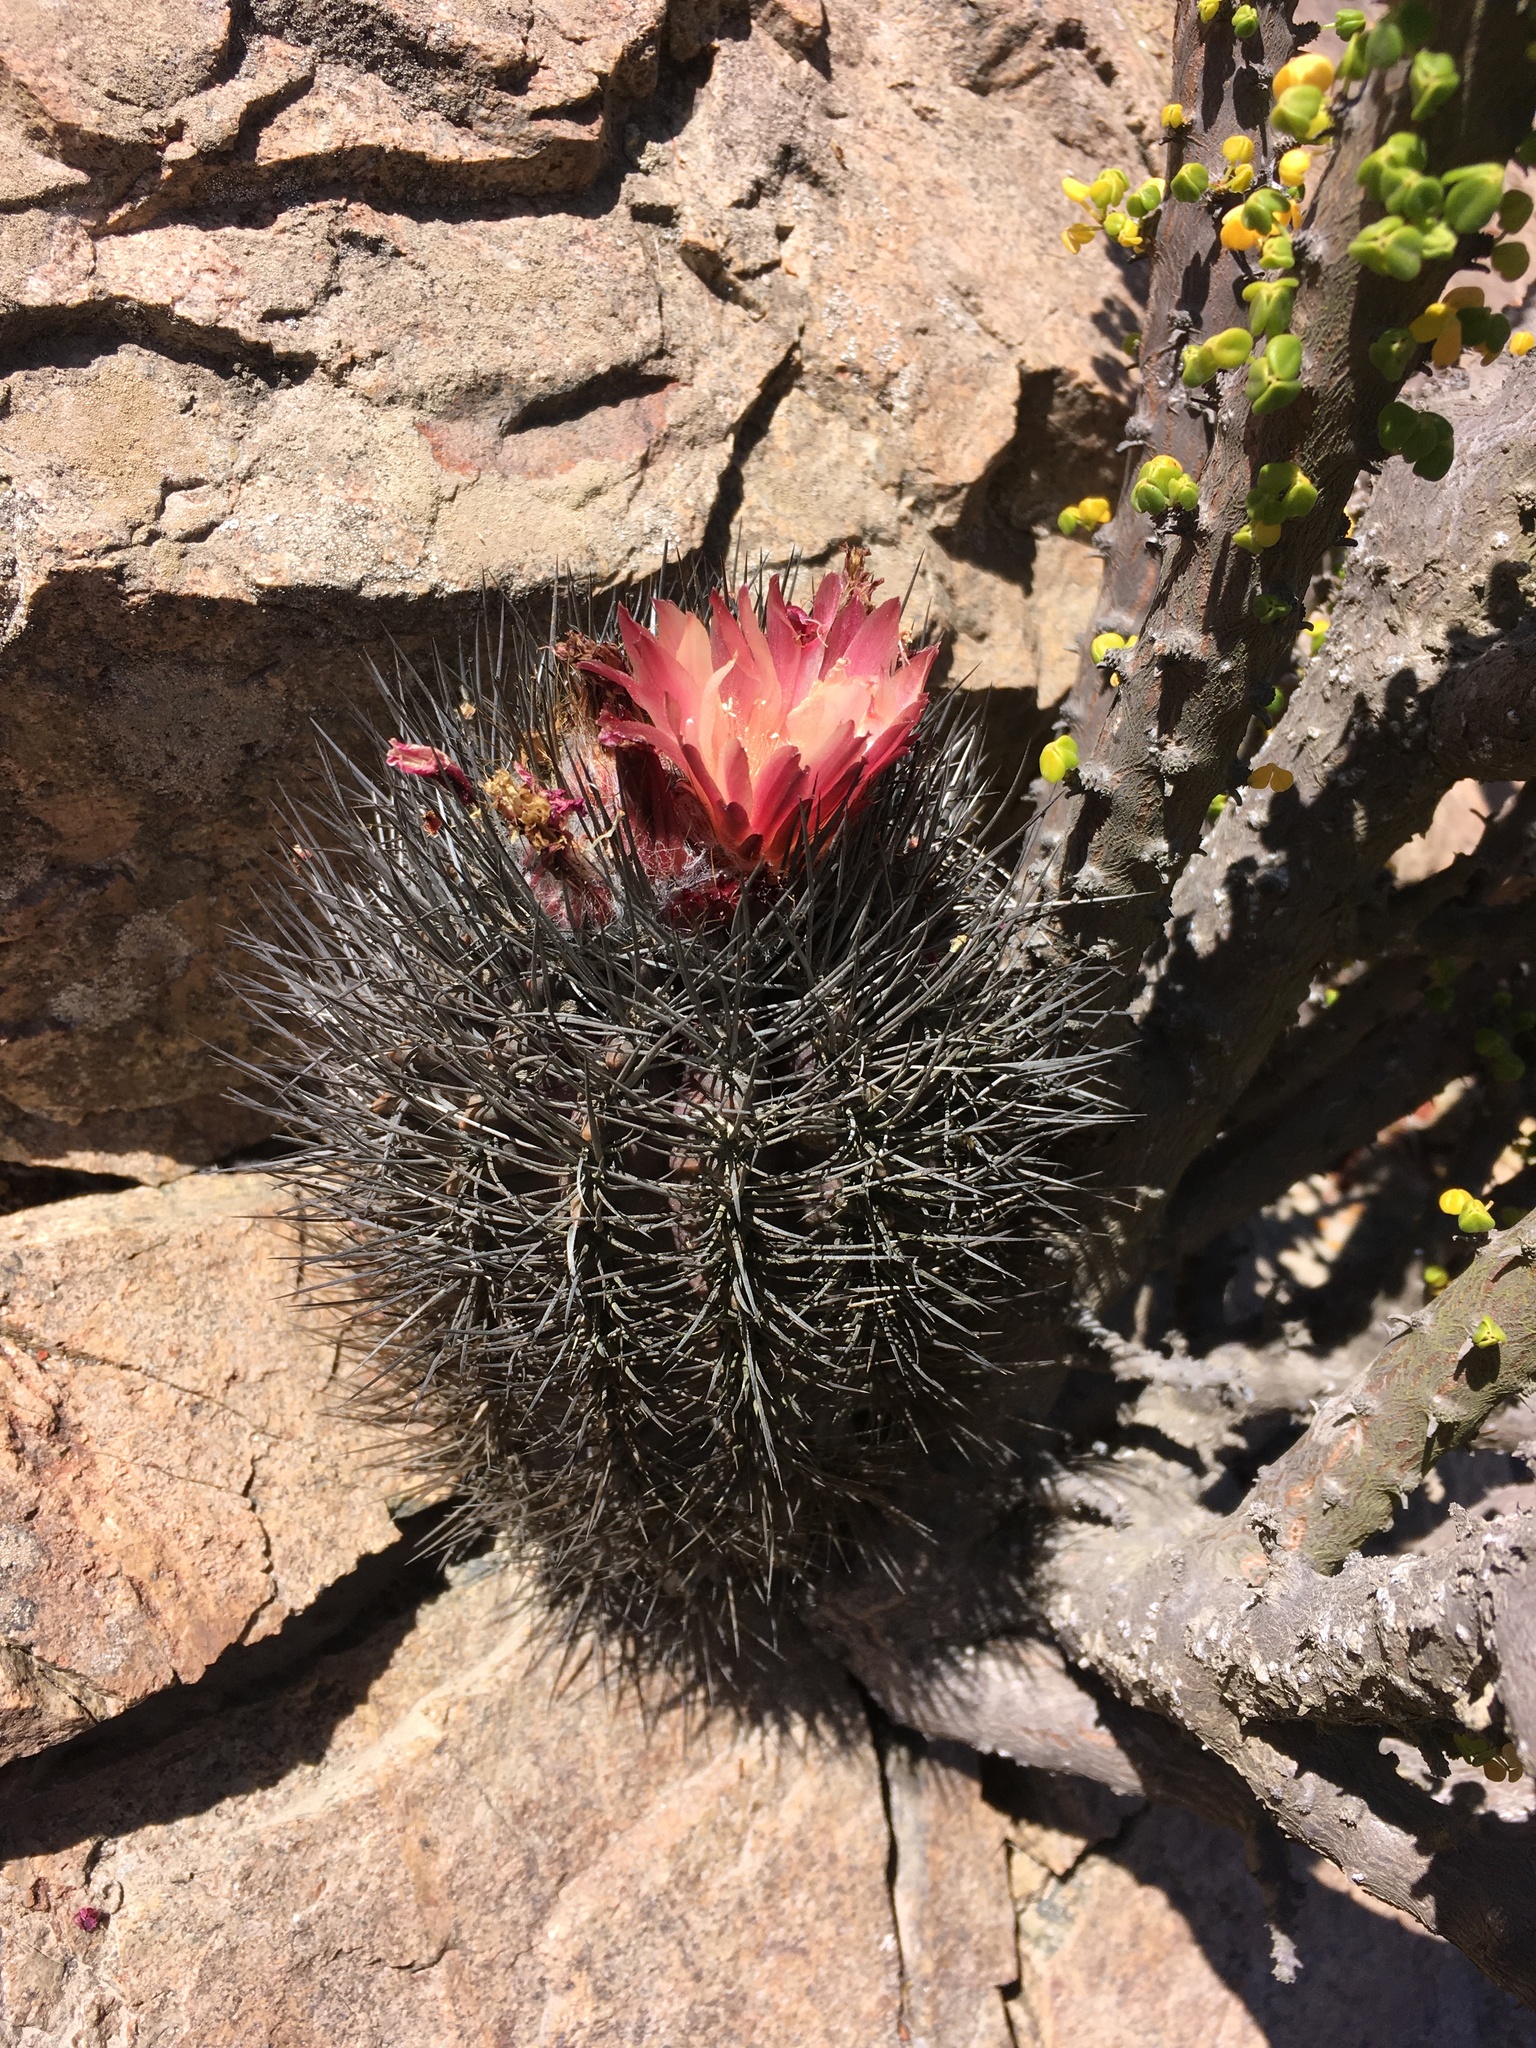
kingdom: Plantae
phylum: Tracheophyta
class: Magnoliopsida
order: Caryophyllales
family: Cactaceae
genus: Eriosyce
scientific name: Eriosyce paucicostata
